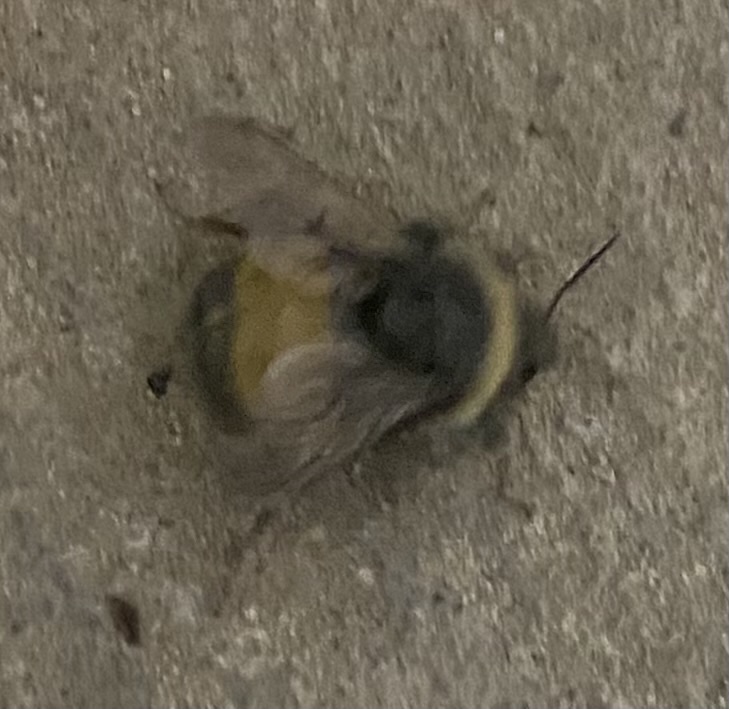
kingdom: Animalia
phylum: Arthropoda
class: Insecta
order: Hymenoptera
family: Apidae
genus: Bombus
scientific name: Bombus terricola
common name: Yellow-banded bumble bee
